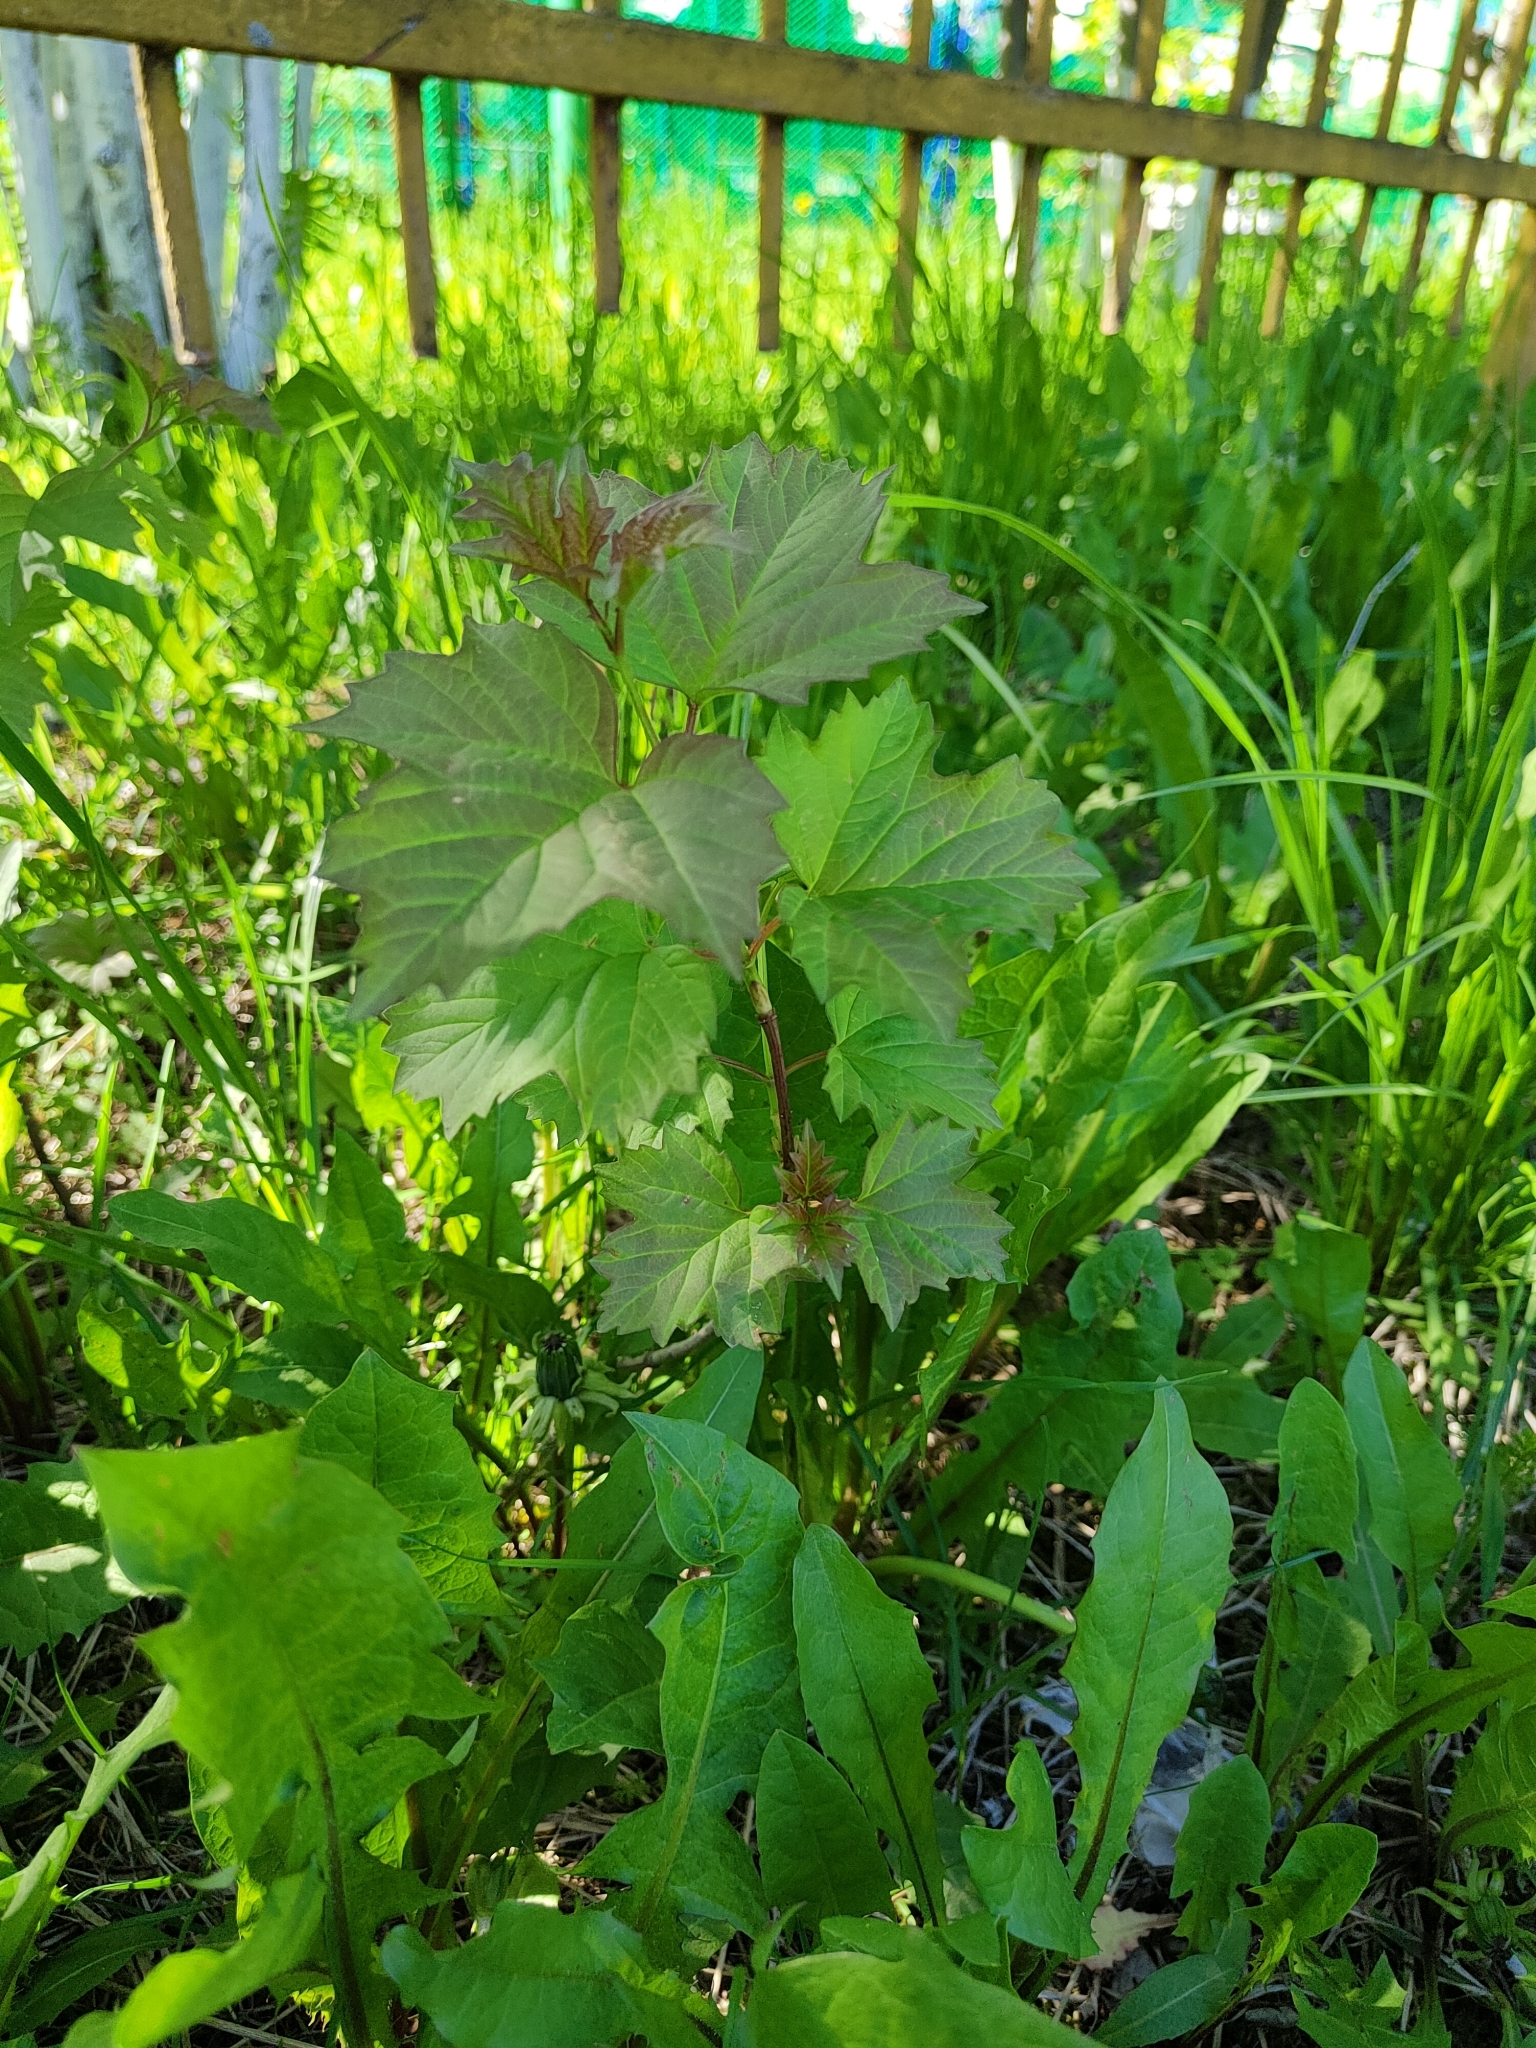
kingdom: Plantae
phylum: Tracheophyta
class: Magnoliopsida
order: Dipsacales
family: Viburnaceae
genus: Viburnum
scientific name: Viburnum opulus
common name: Guelder-rose
